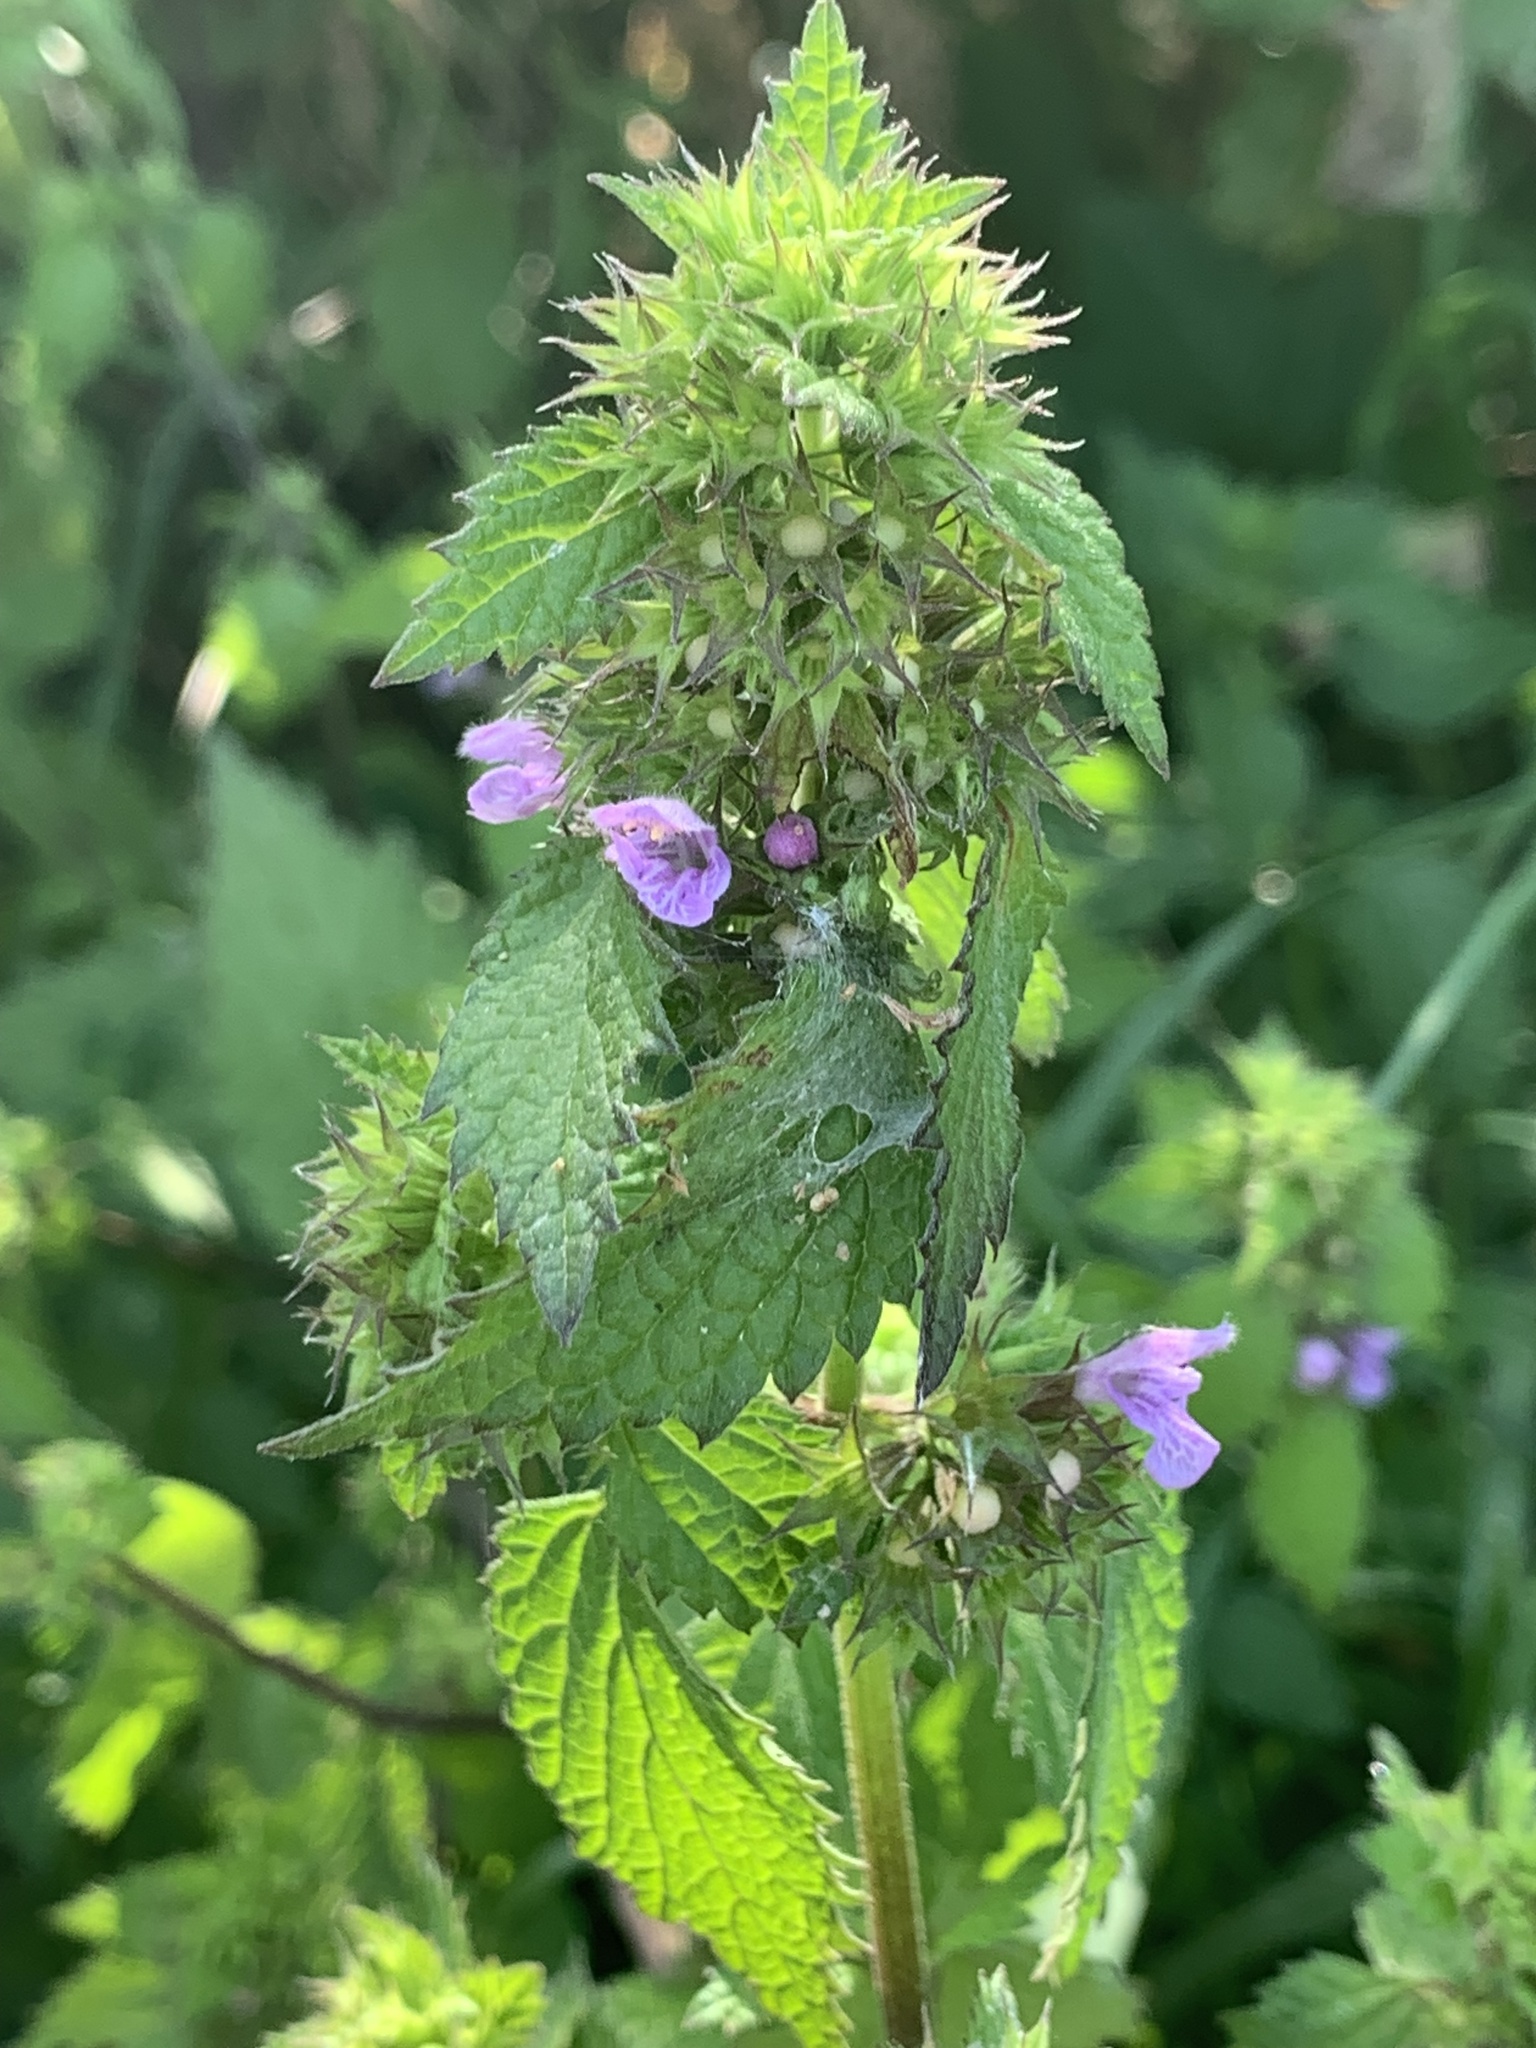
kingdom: Plantae
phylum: Tracheophyta
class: Magnoliopsida
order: Lamiales
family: Lamiaceae
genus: Ballota
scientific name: Ballota nigra
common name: Black horehound
